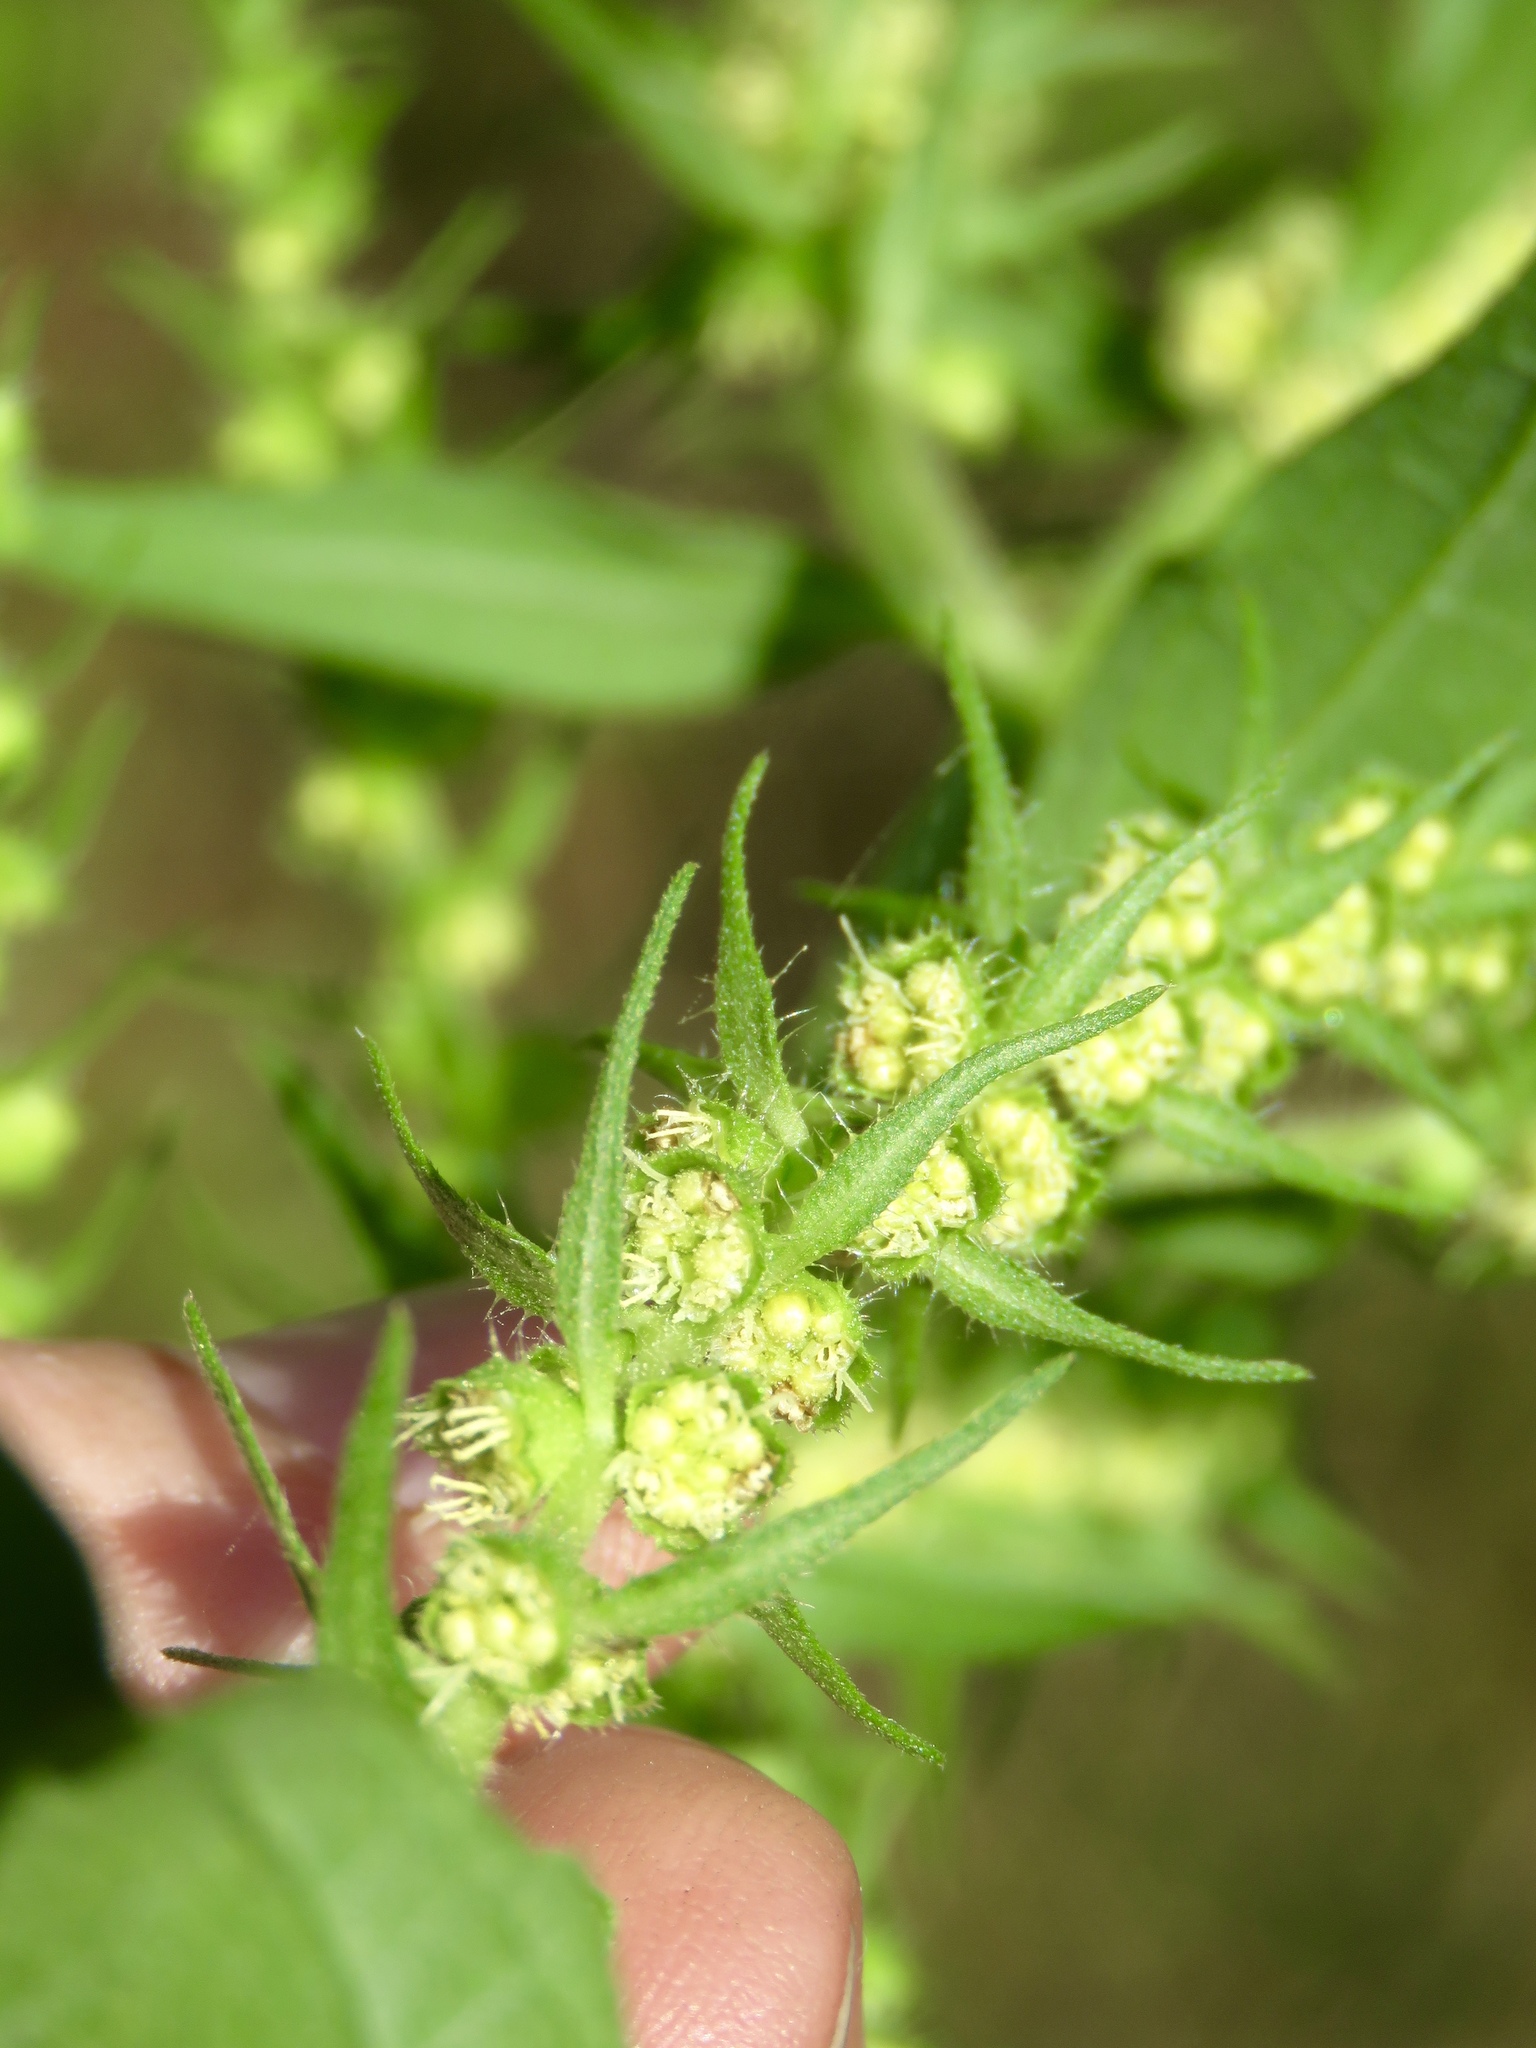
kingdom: Plantae
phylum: Tracheophyta
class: Magnoliopsida
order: Asterales
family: Asteraceae
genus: Iva
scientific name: Iva annua
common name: Marsh-elder
